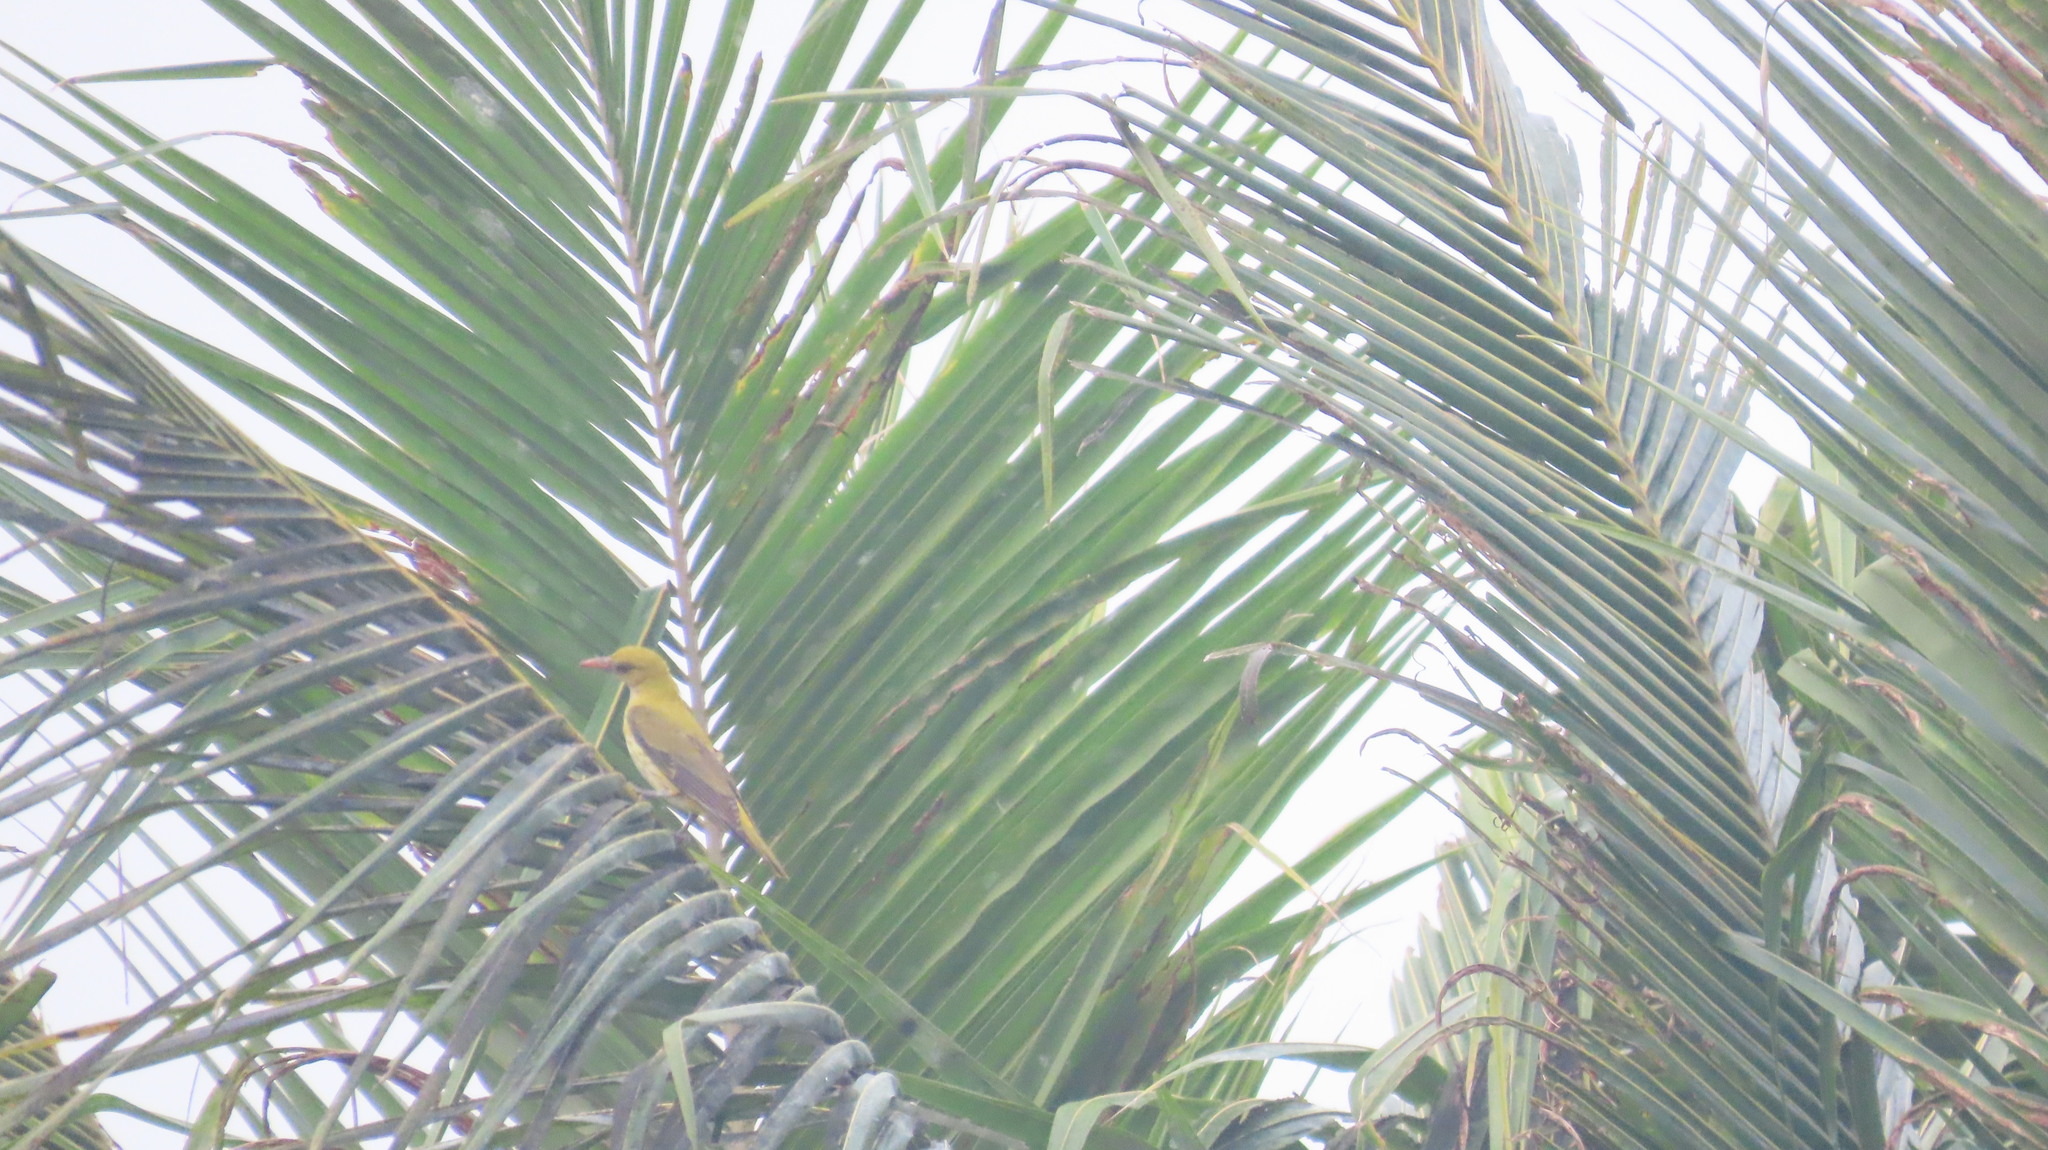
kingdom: Animalia
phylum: Chordata
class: Aves
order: Passeriformes
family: Oriolidae
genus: Oriolus
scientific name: Oriolus kundoo
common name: Indian golden oriole
